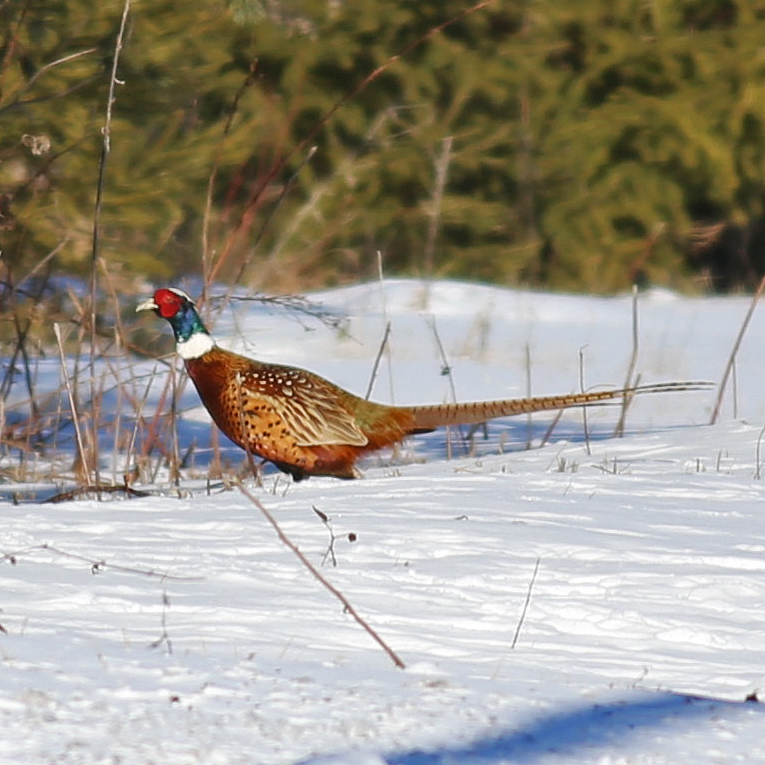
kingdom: Animalia
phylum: Chordata
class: Aves
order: Galliformes
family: Phasianidae
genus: Phasianus
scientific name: Phasianus colchicus
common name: Common pheasant
